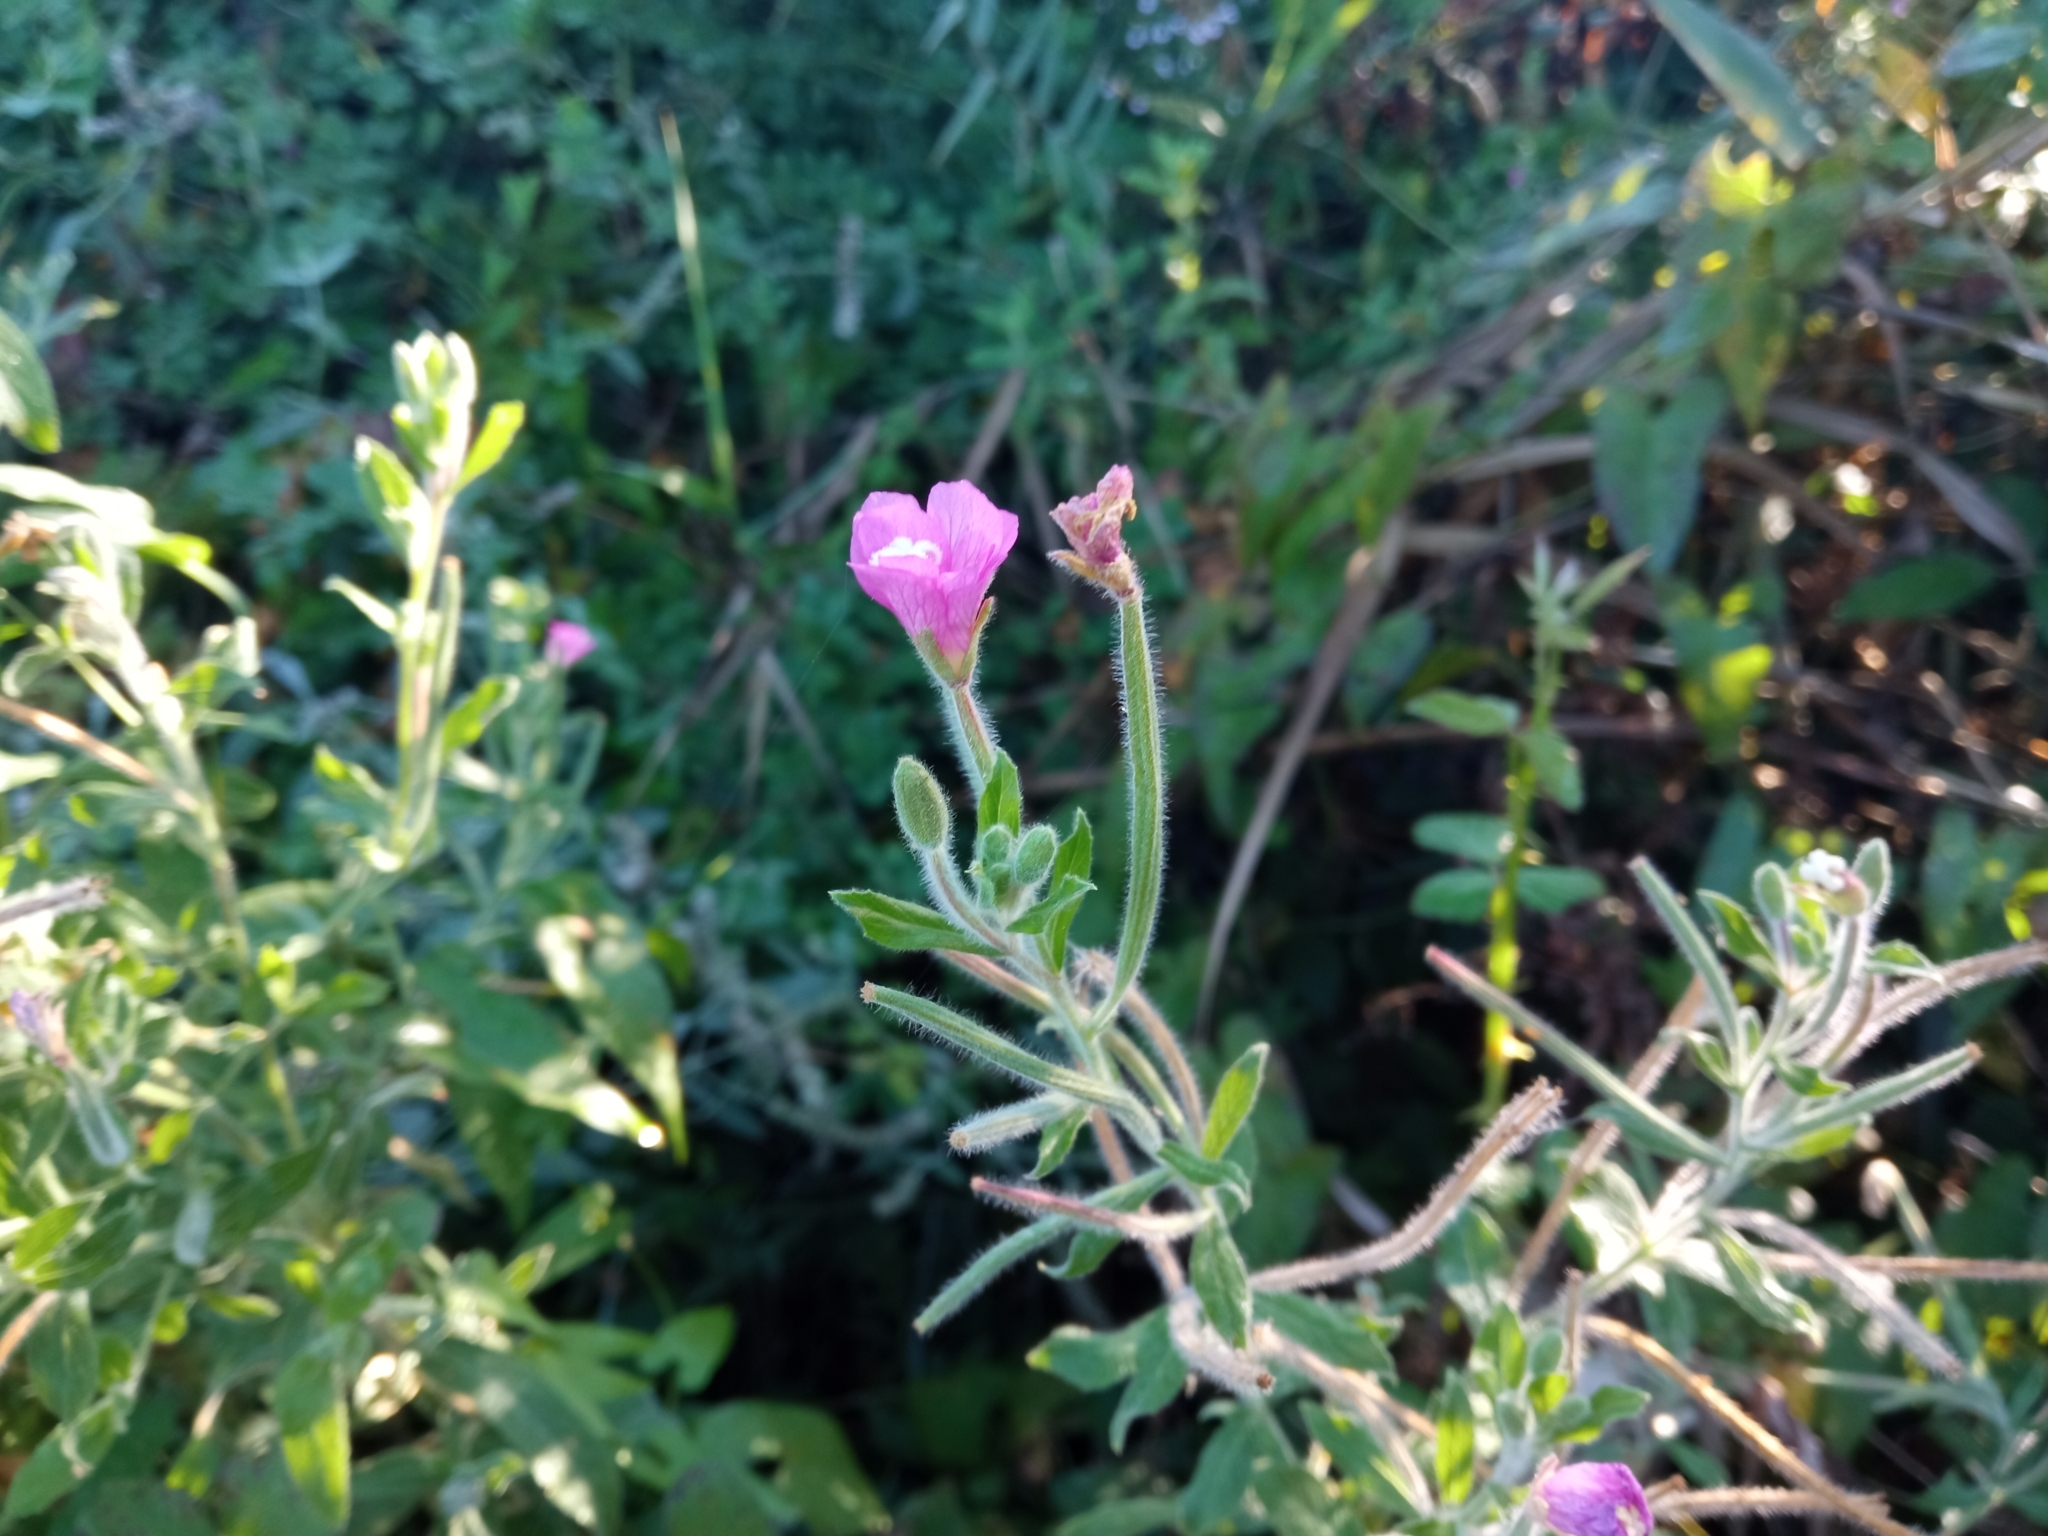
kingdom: Plantae
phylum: Tracheophyta
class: Magnoliopsida
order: Myrtales
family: Onagraceae
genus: Epilobium
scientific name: Epilobium hirsutum
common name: Great willowherb
